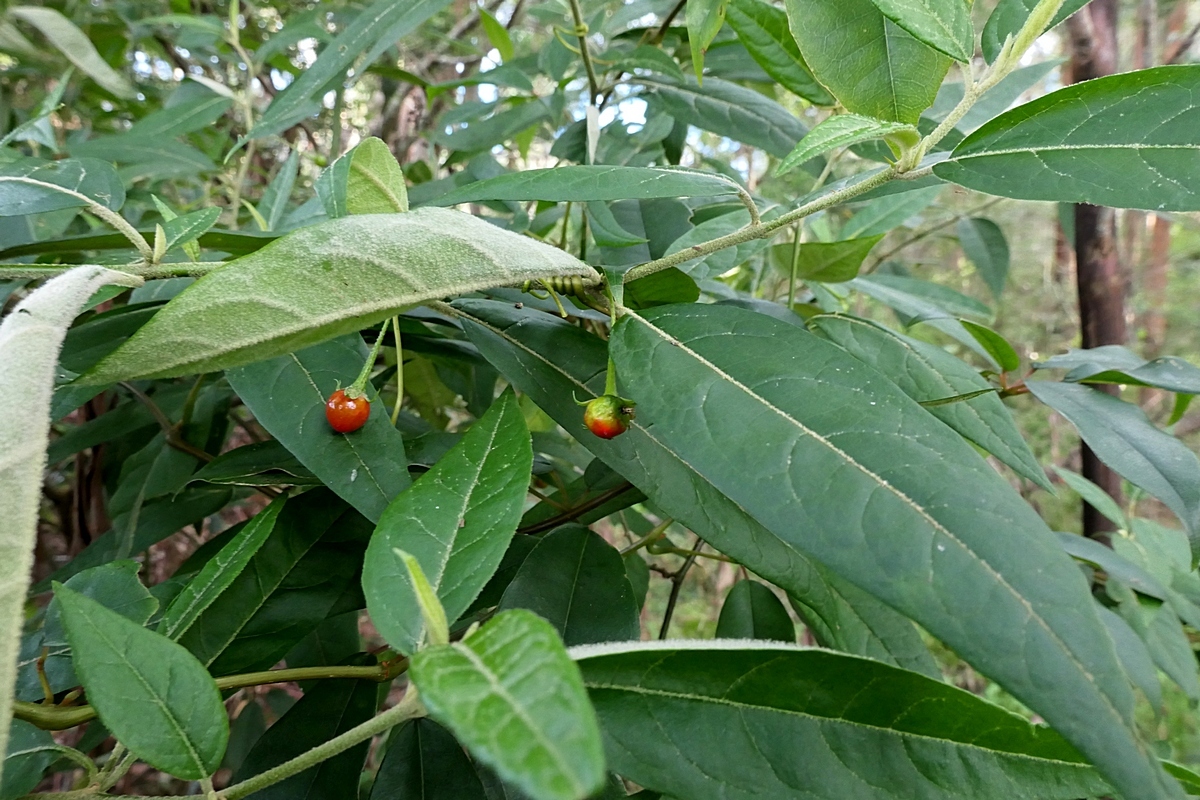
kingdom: Plantae
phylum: Tracheophyta
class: Magnoliopsida
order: Solanales
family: Solanaceae
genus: Solanum
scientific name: Solanum stelligerum
